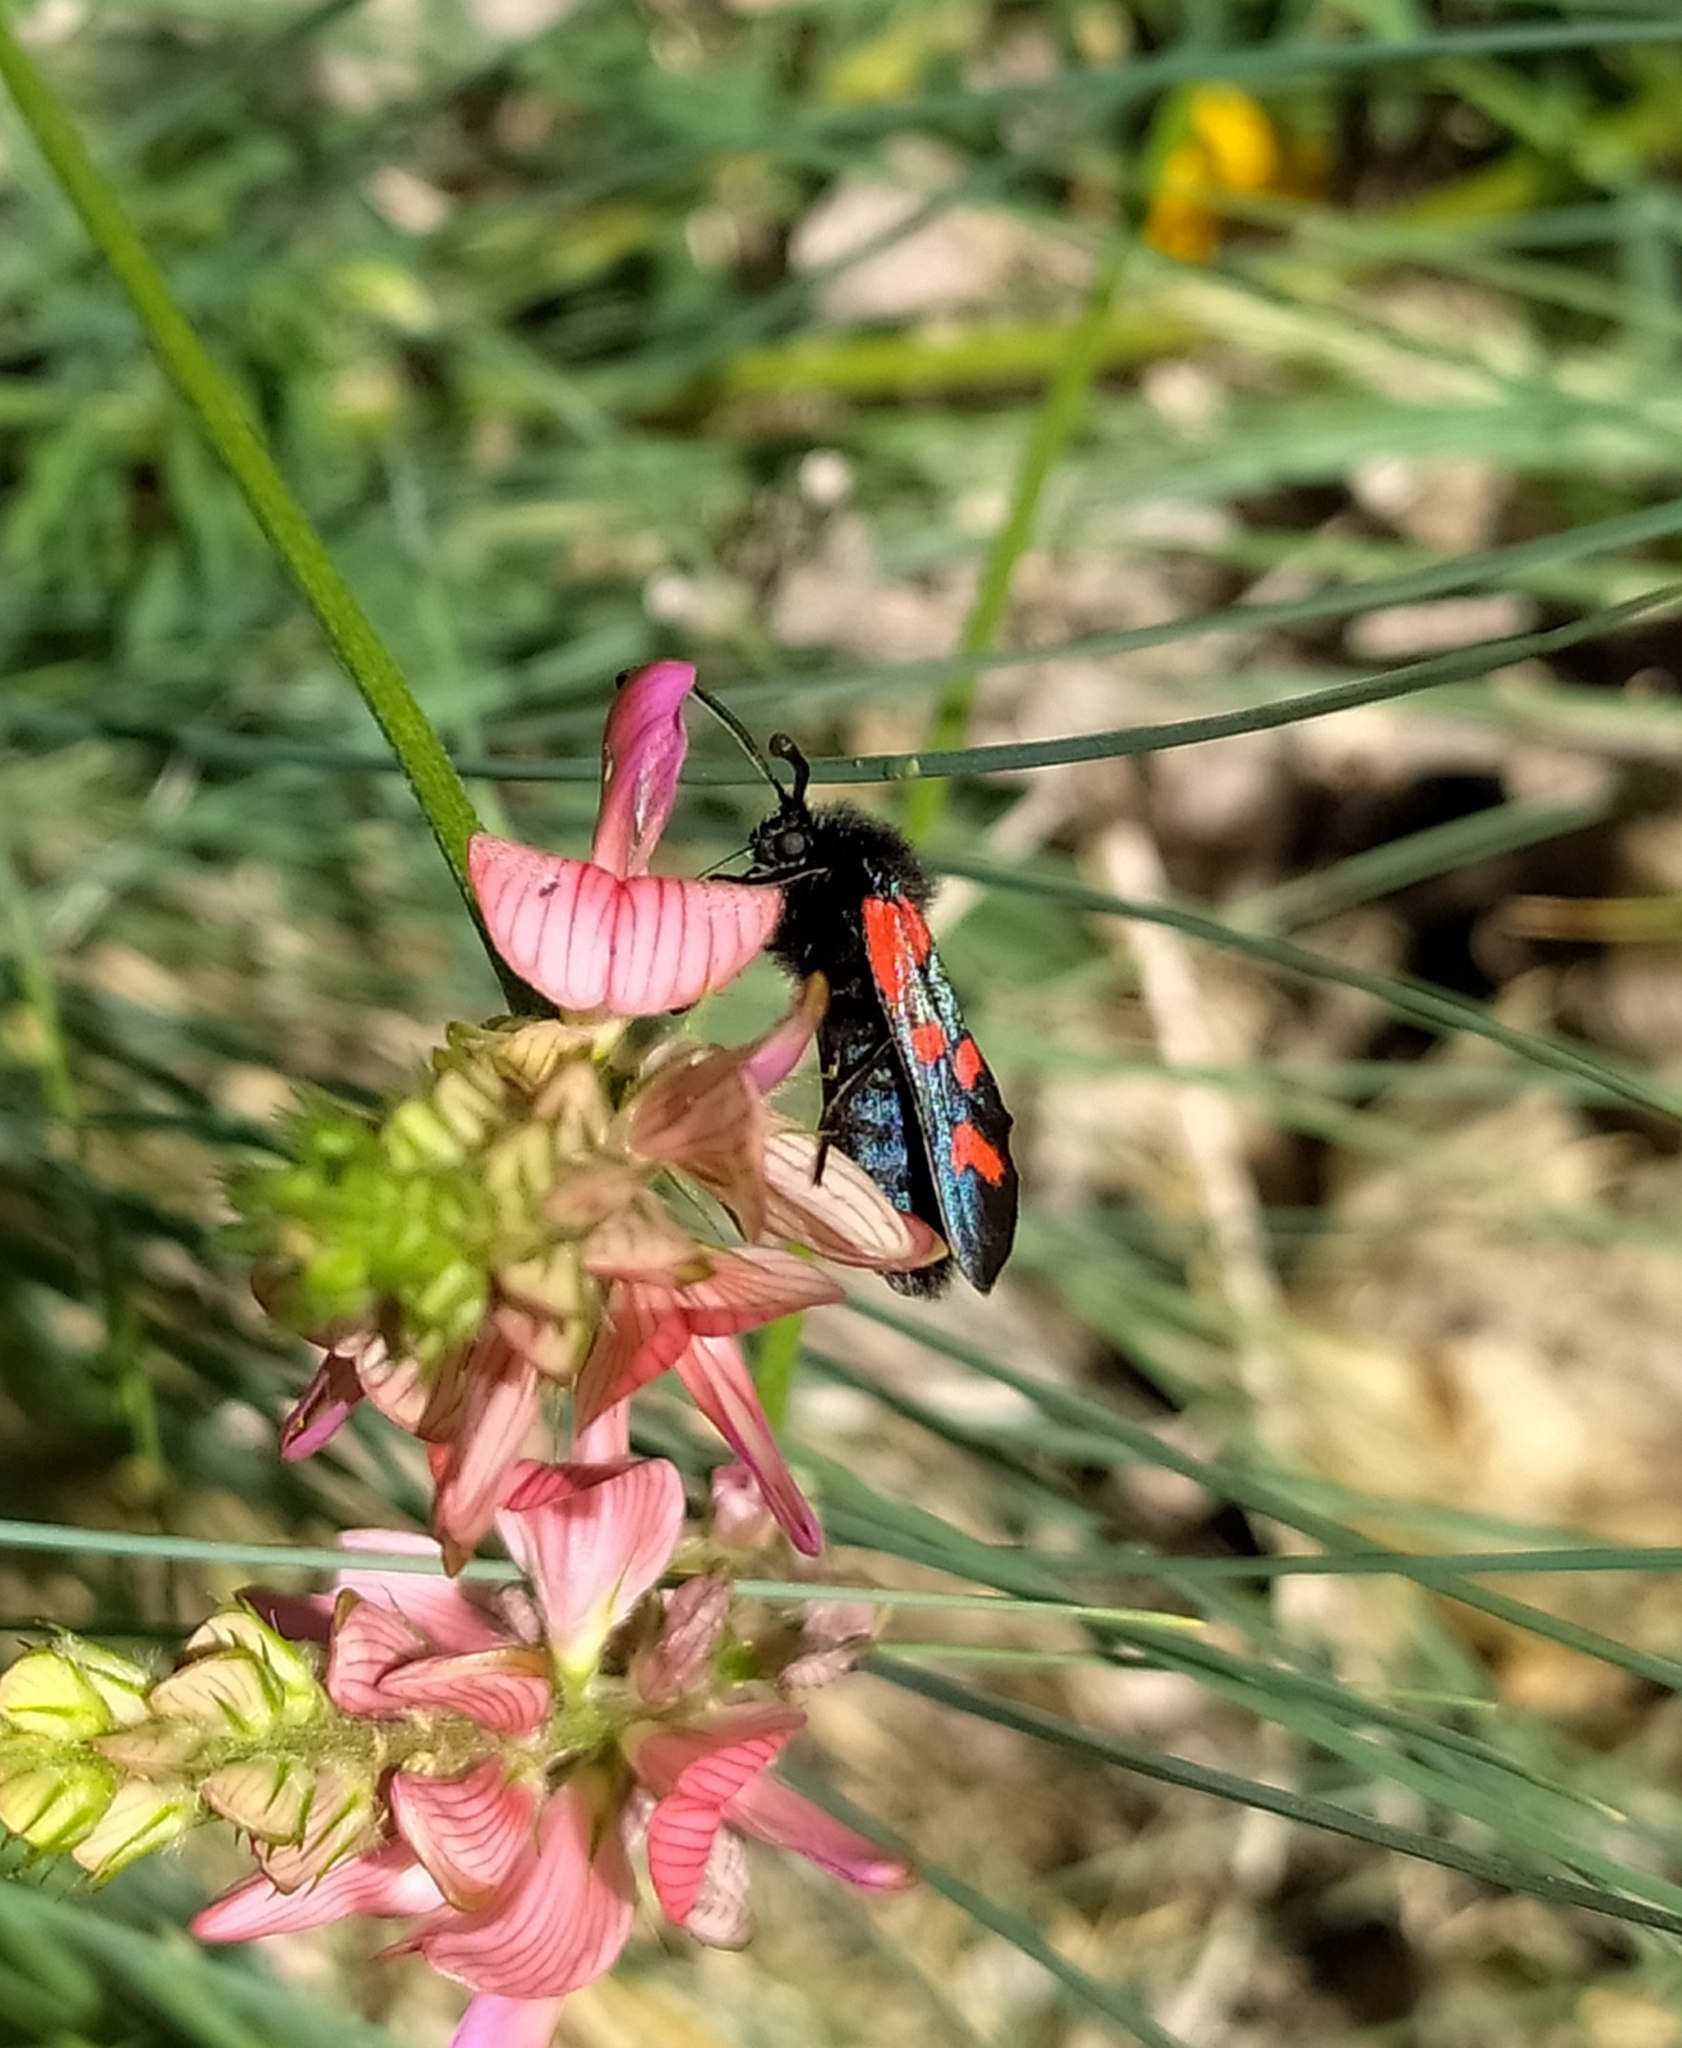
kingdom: Animalia
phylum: Arthropoda
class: Insecta
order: Lepidoptera
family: Zygaenidae
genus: Zygaena
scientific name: Zygaena oxytropis
